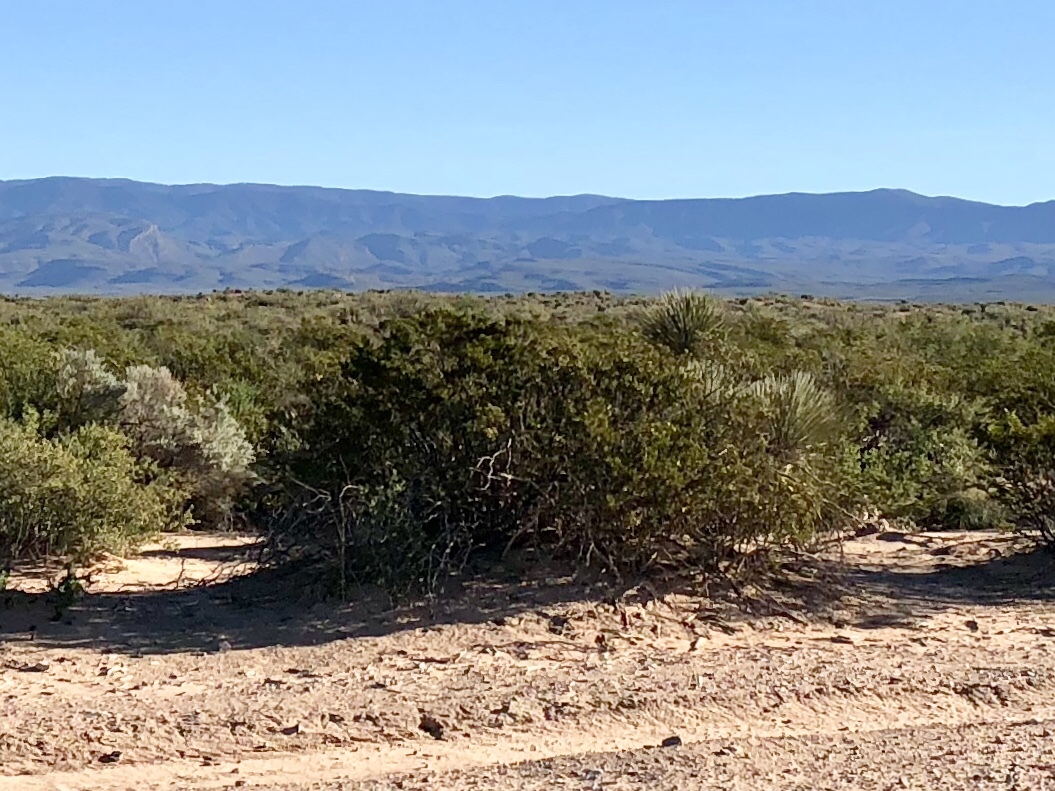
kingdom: Plantae
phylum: Tracheophyta
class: Magnoliopsida
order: Zygophyllales
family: Zygophyllaceae
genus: Larrea
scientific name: Larrea tridentata
